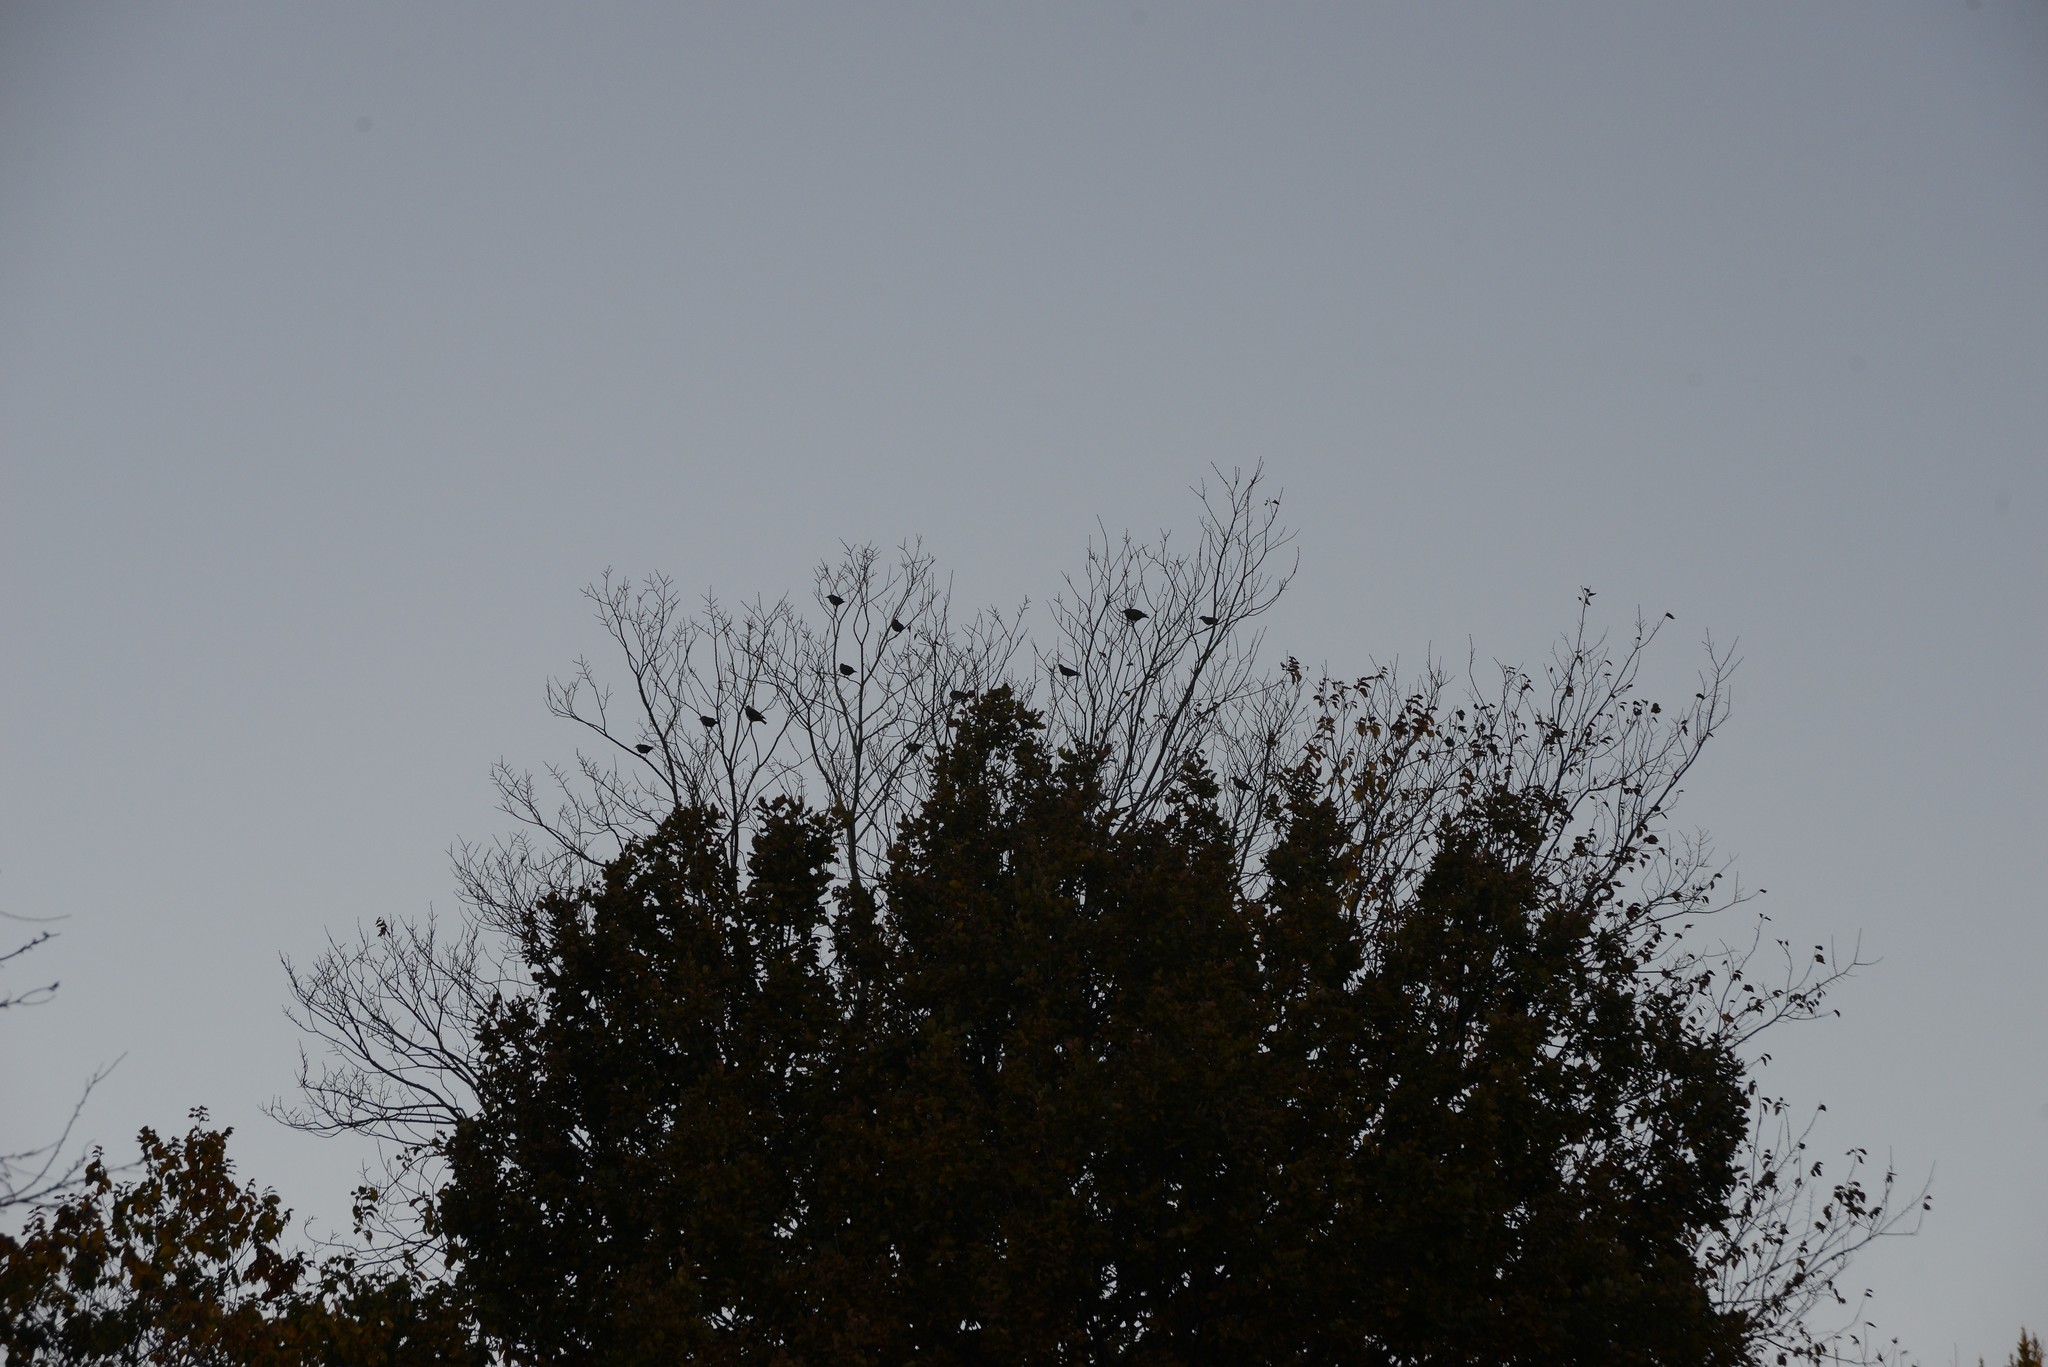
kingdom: Animalia
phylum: Chordata
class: Aves
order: Passeriformes
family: Sturnidae
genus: Sturnus
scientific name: Sturnus vulgaris
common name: Common starling
